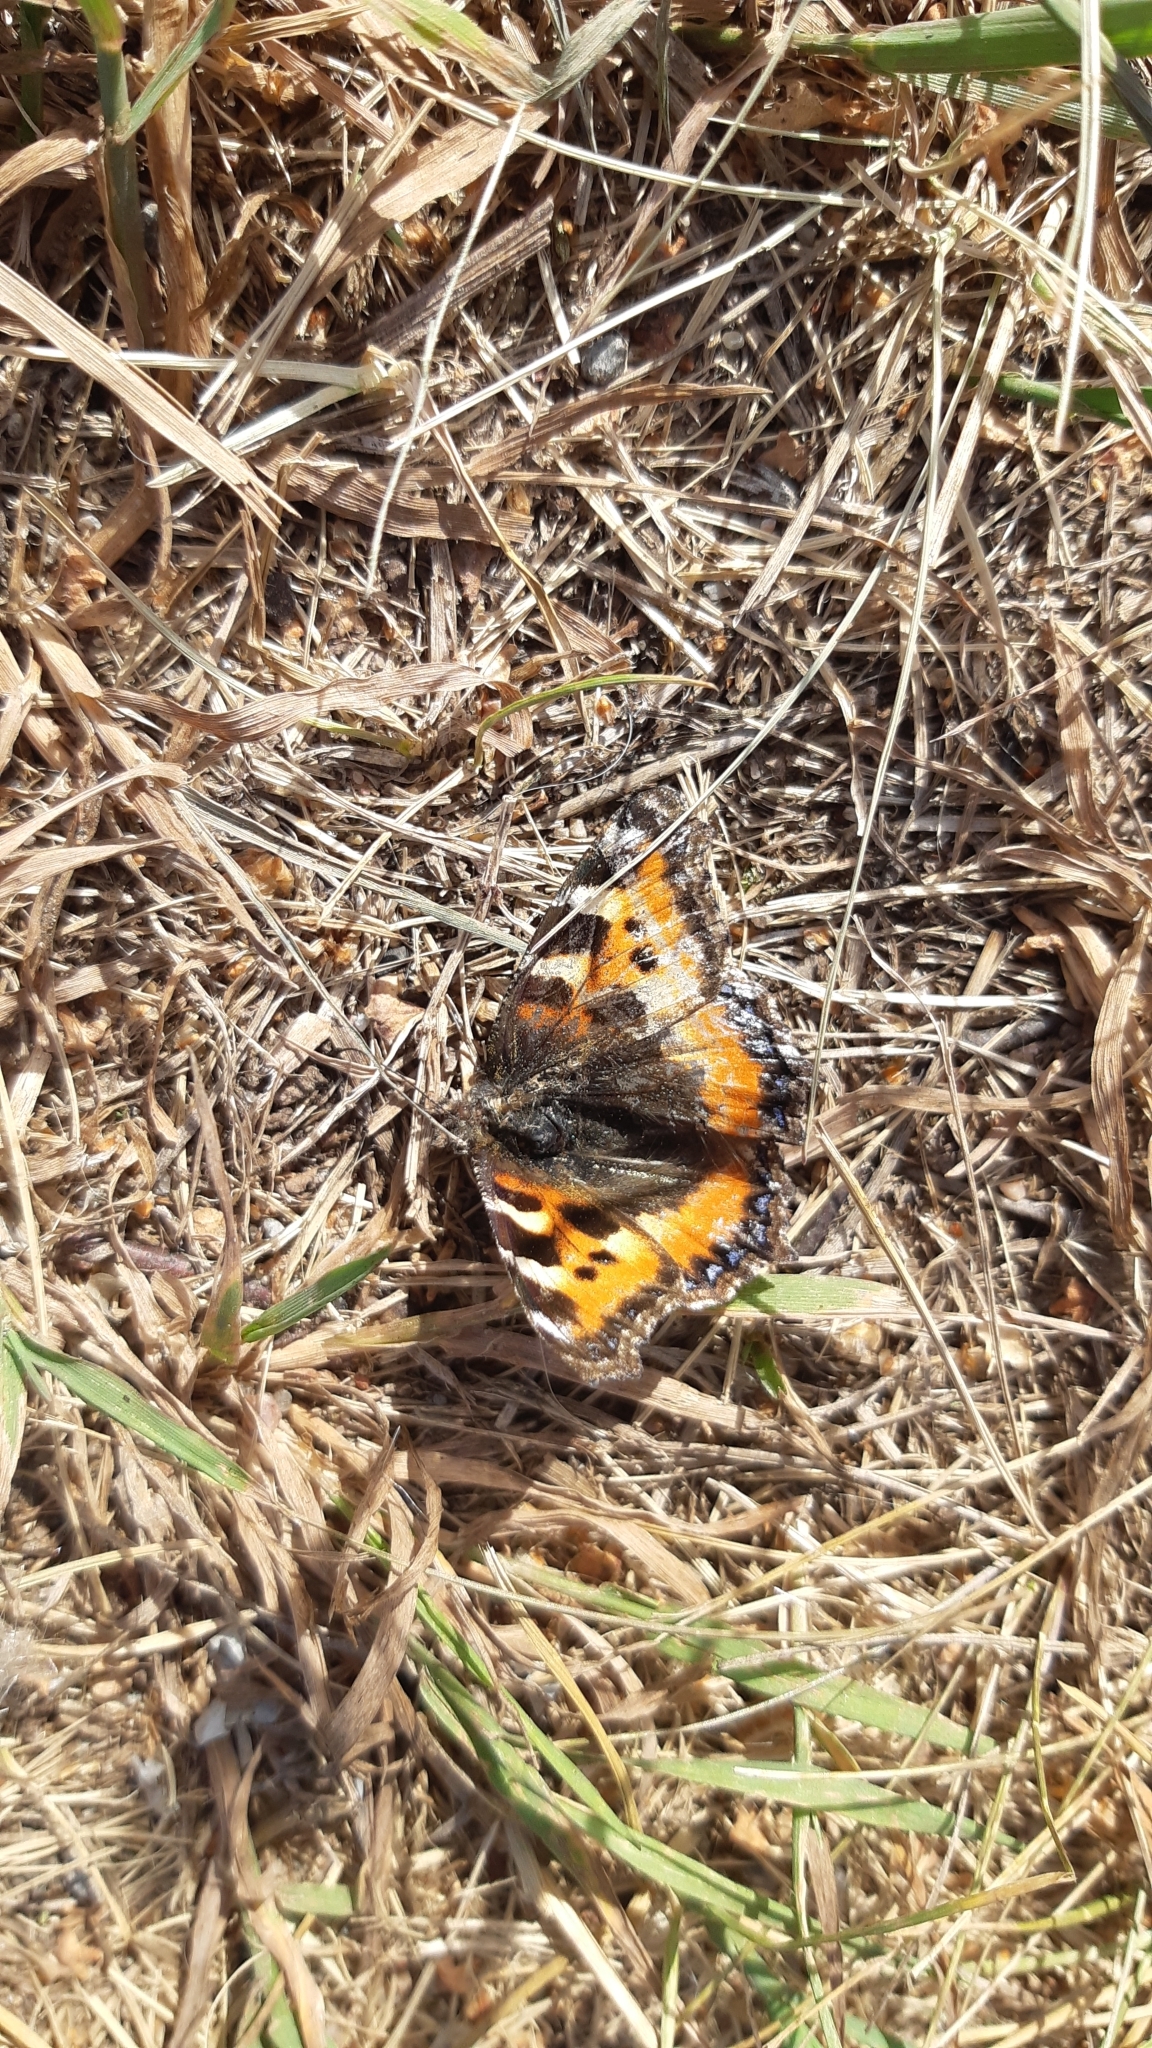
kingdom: Animalia
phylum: Arthropoda
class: Insecta
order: Lepidoptera
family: Nymphalidae
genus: Aglais
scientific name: Aglais urticae
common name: Small tortoiseshell
